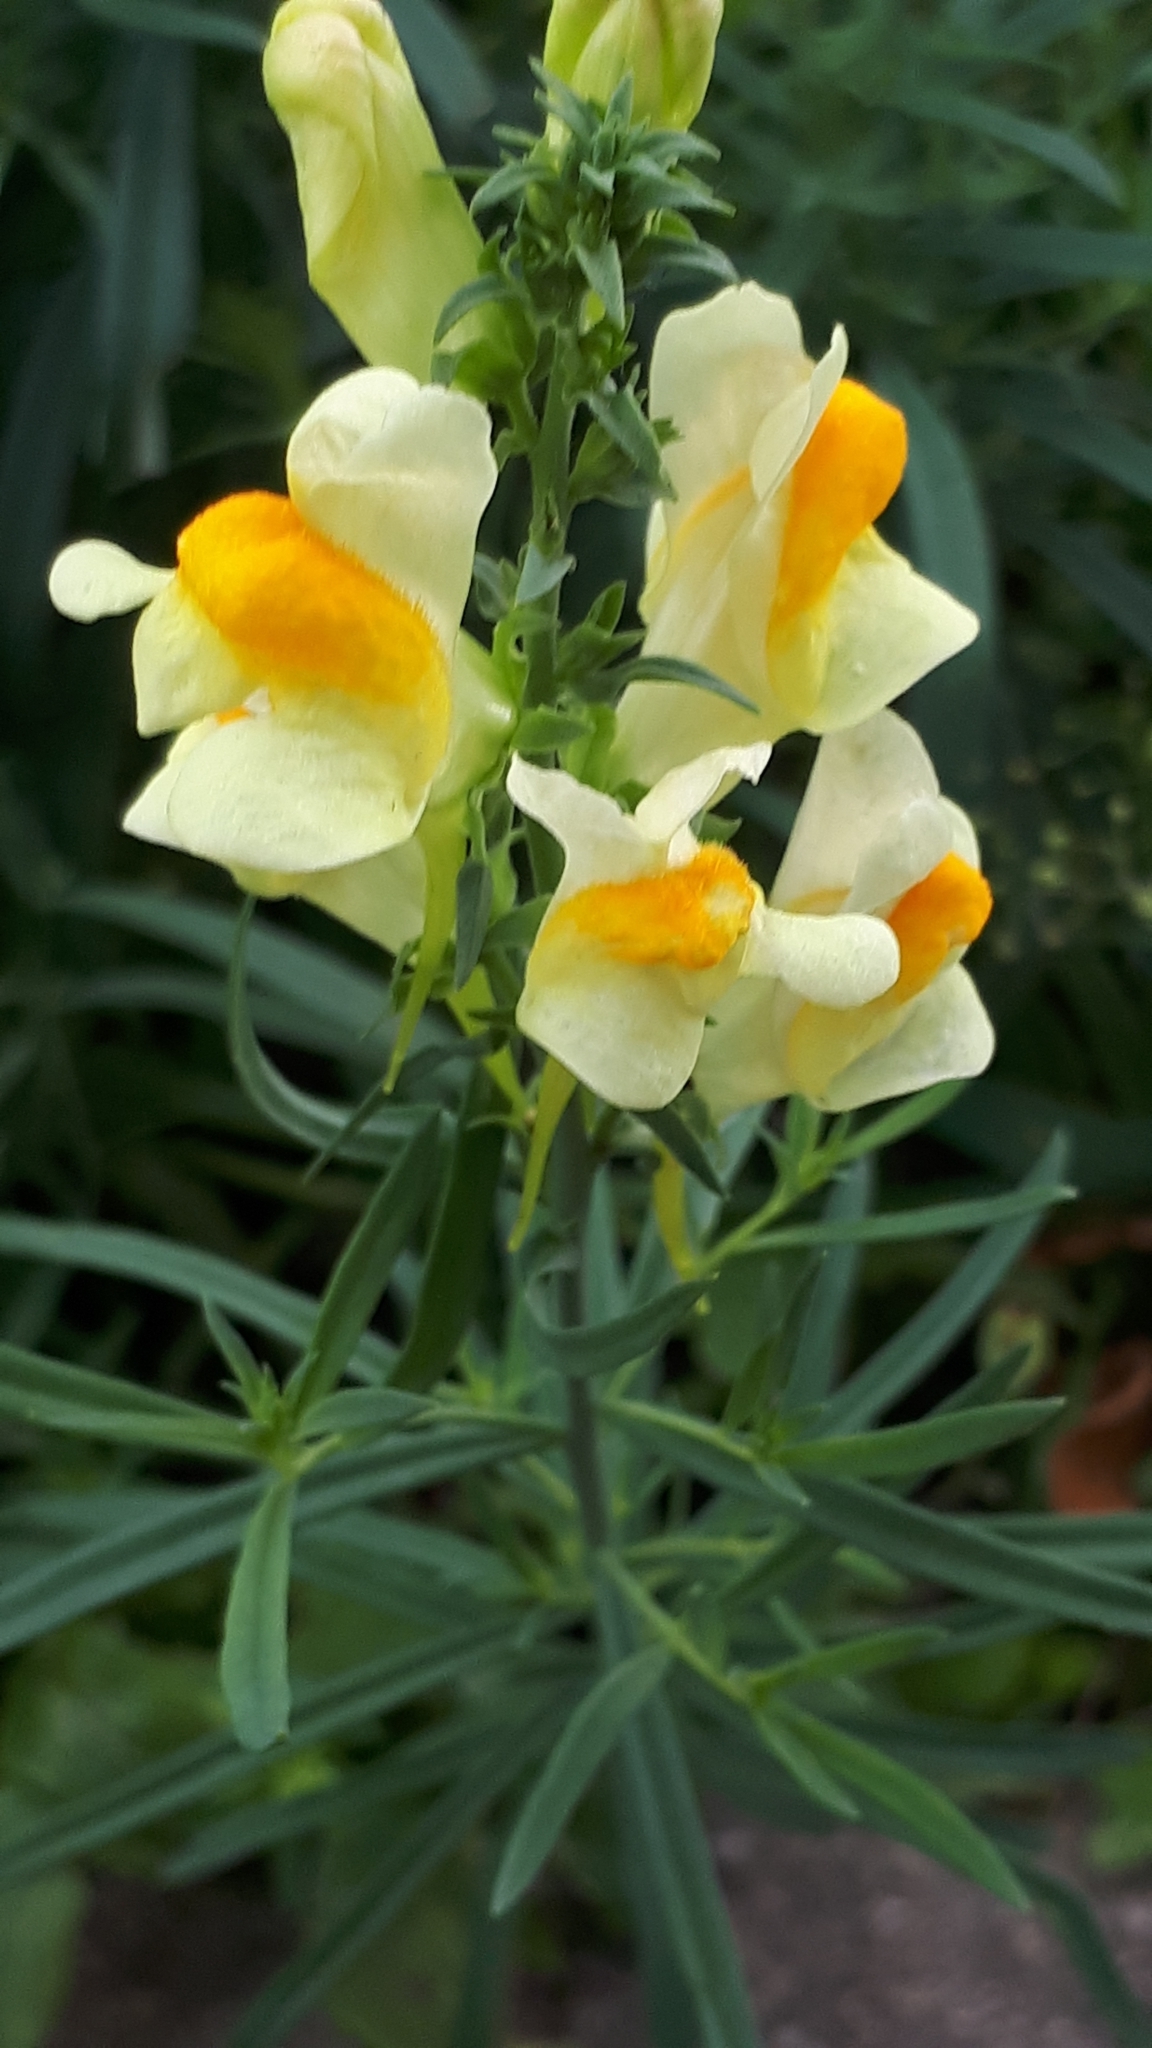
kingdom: Plantae
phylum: Tracheophyta
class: Magnoliopsida
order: Lamiales
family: Plantaginaceae
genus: Linaria
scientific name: Linaria vulgaris
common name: Butter and eggs
